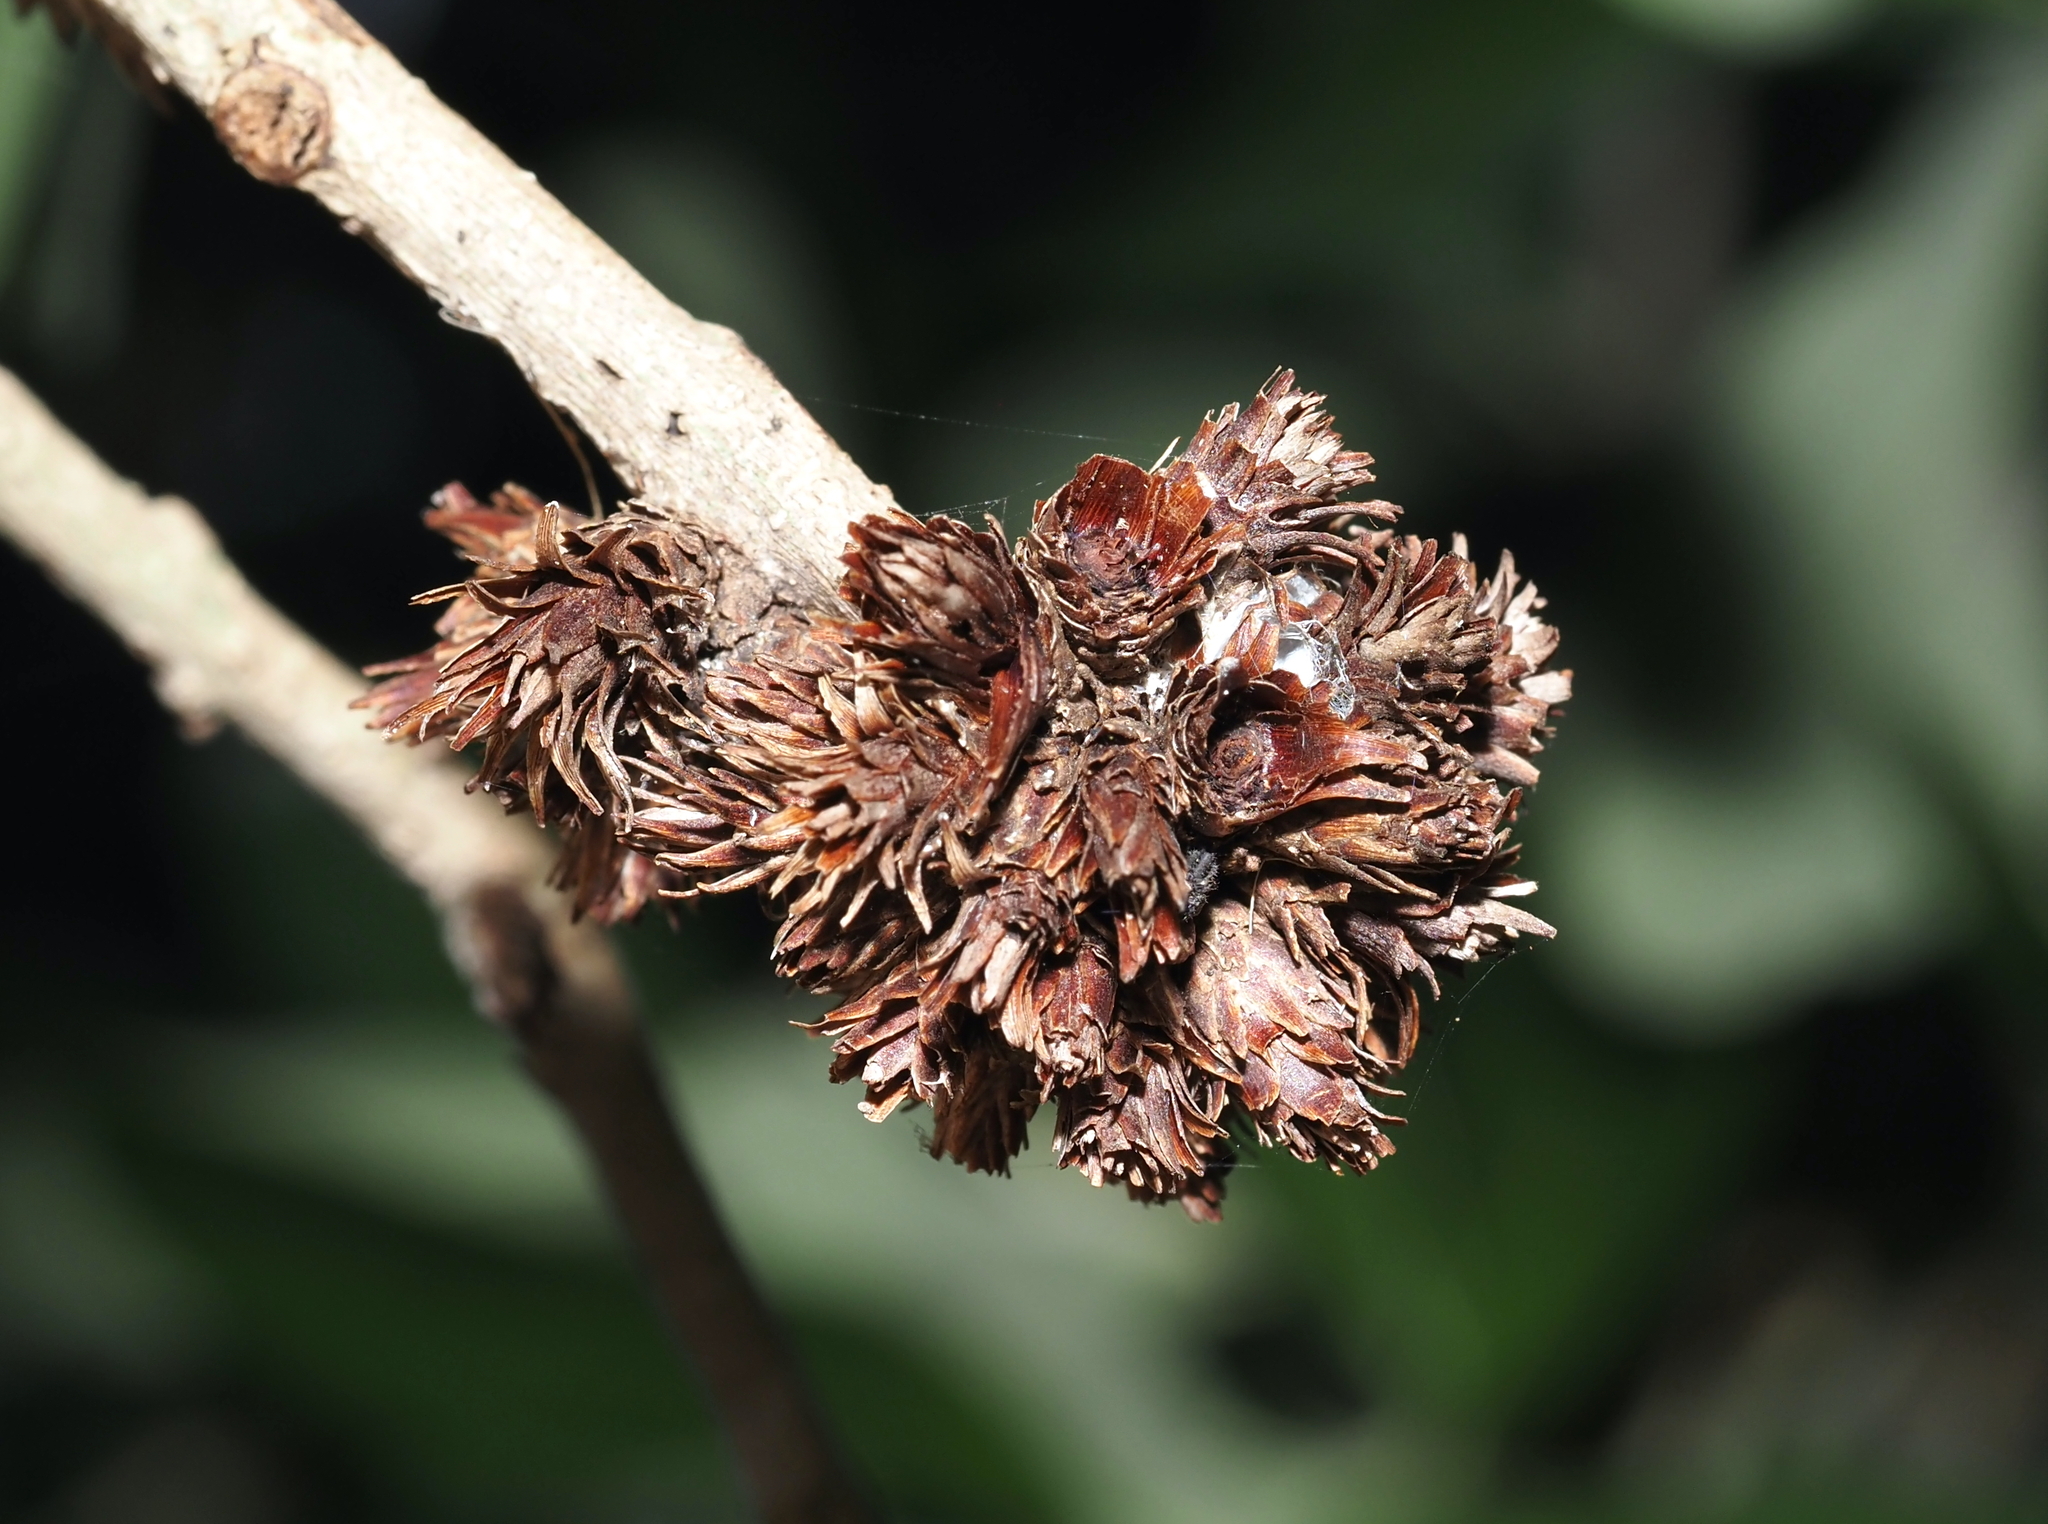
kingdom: Animalia
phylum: Arthropoda
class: Insecta
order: Diptera
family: Cecidomyiidae
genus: Arnoldiola
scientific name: Arnoldiola atra
